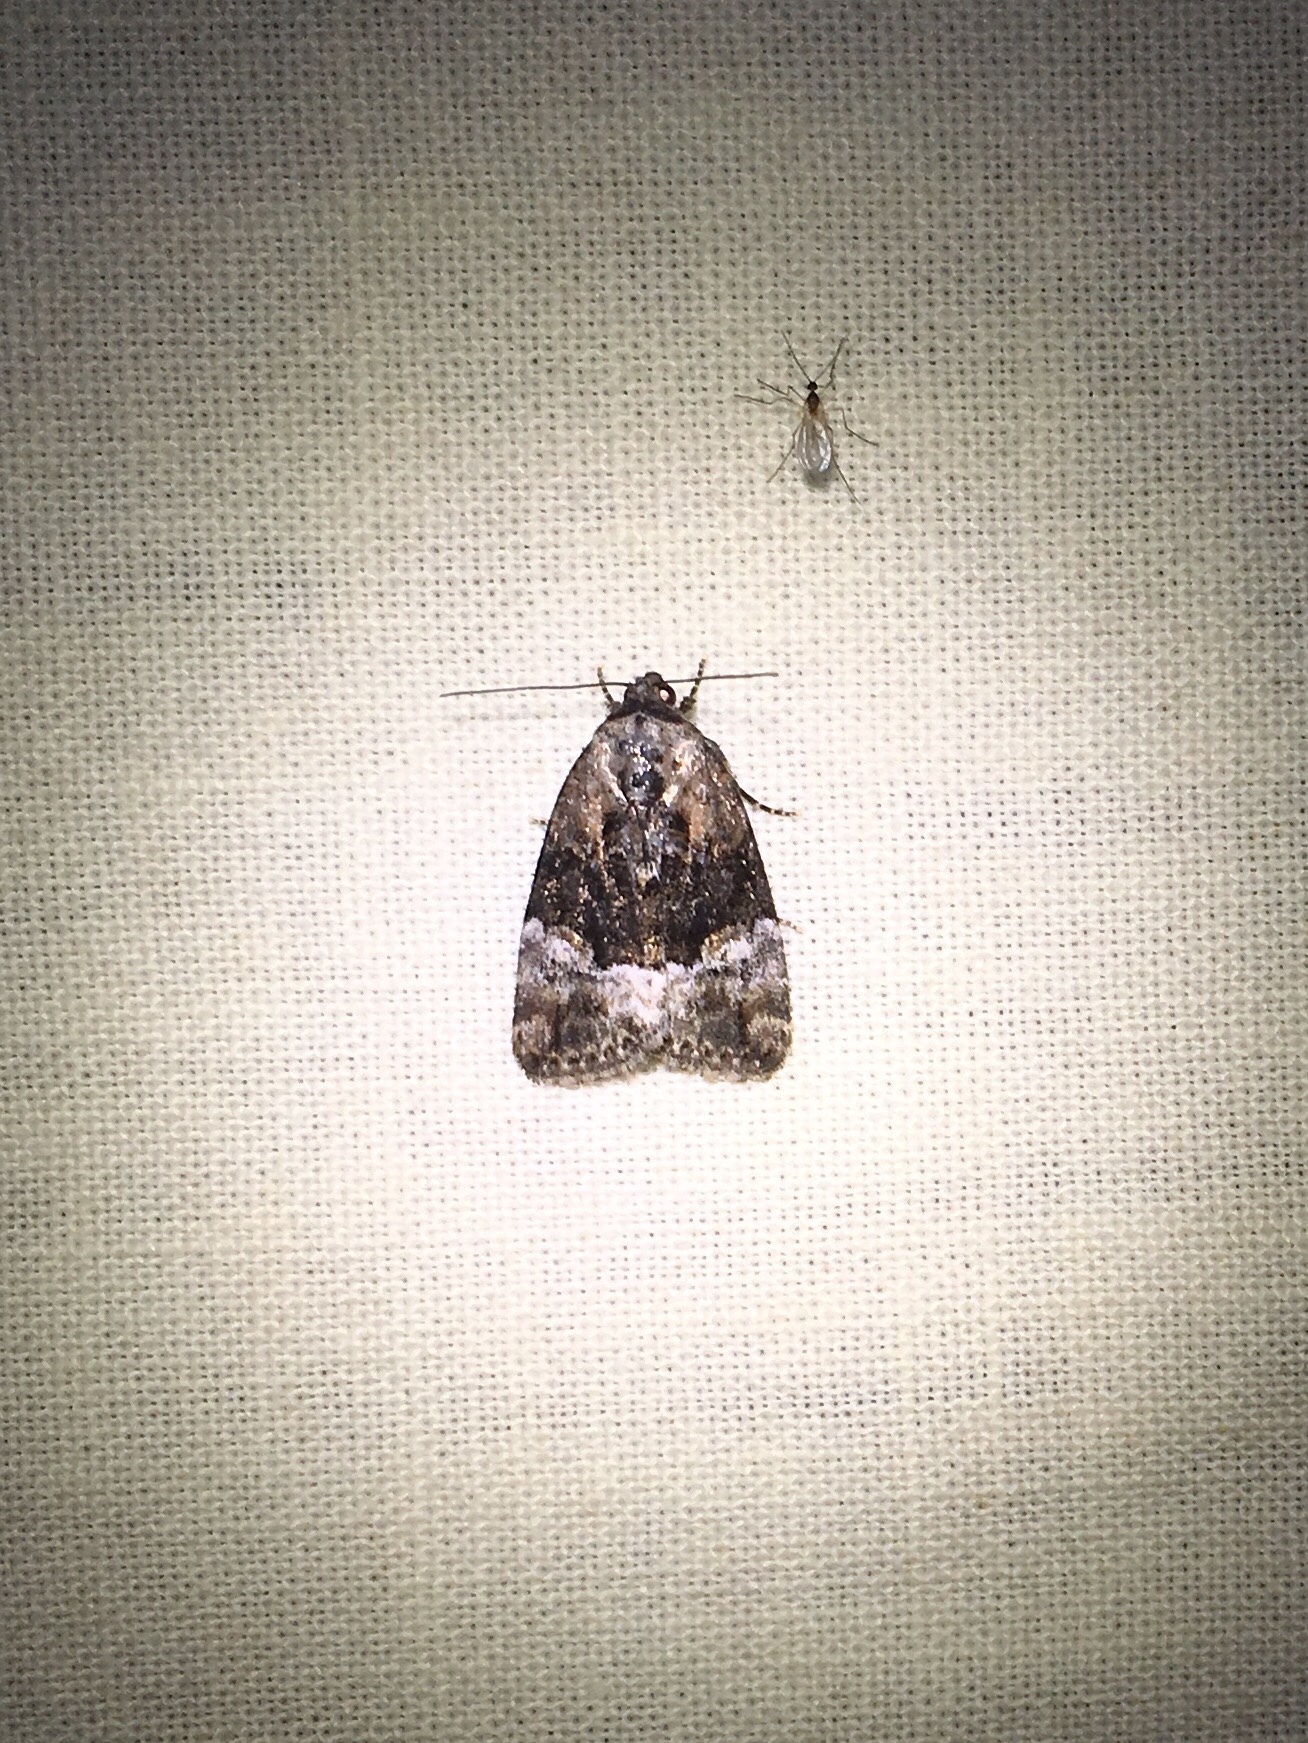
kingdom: Animalia
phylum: Arthropoda
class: Insecta
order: Lepidoptera
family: Noctuidae
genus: Elaphria
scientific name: Elaphria georgei
